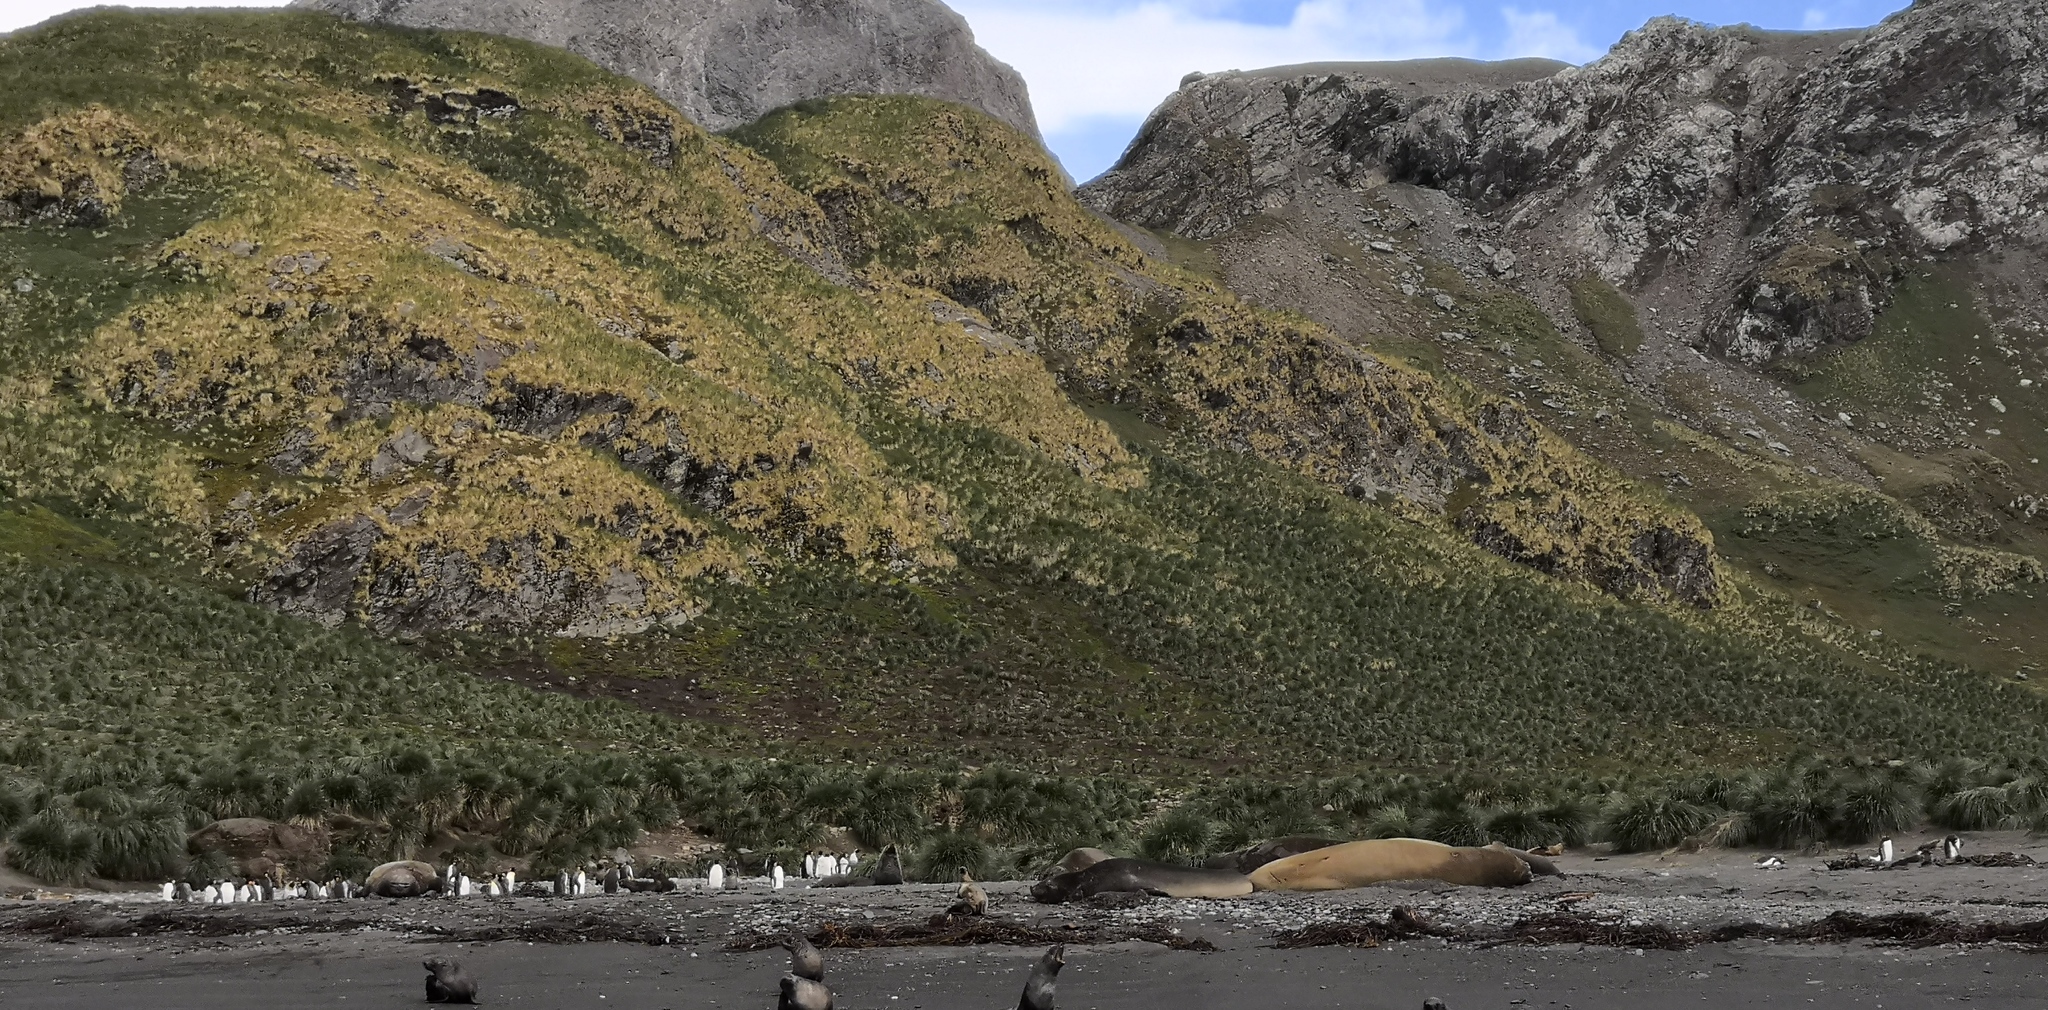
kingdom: Animalia
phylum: Chordata
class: Mammalia
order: Carnivora
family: Phocidae
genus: Mirounga
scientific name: Mirounga leonina
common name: Southern elephant seal
